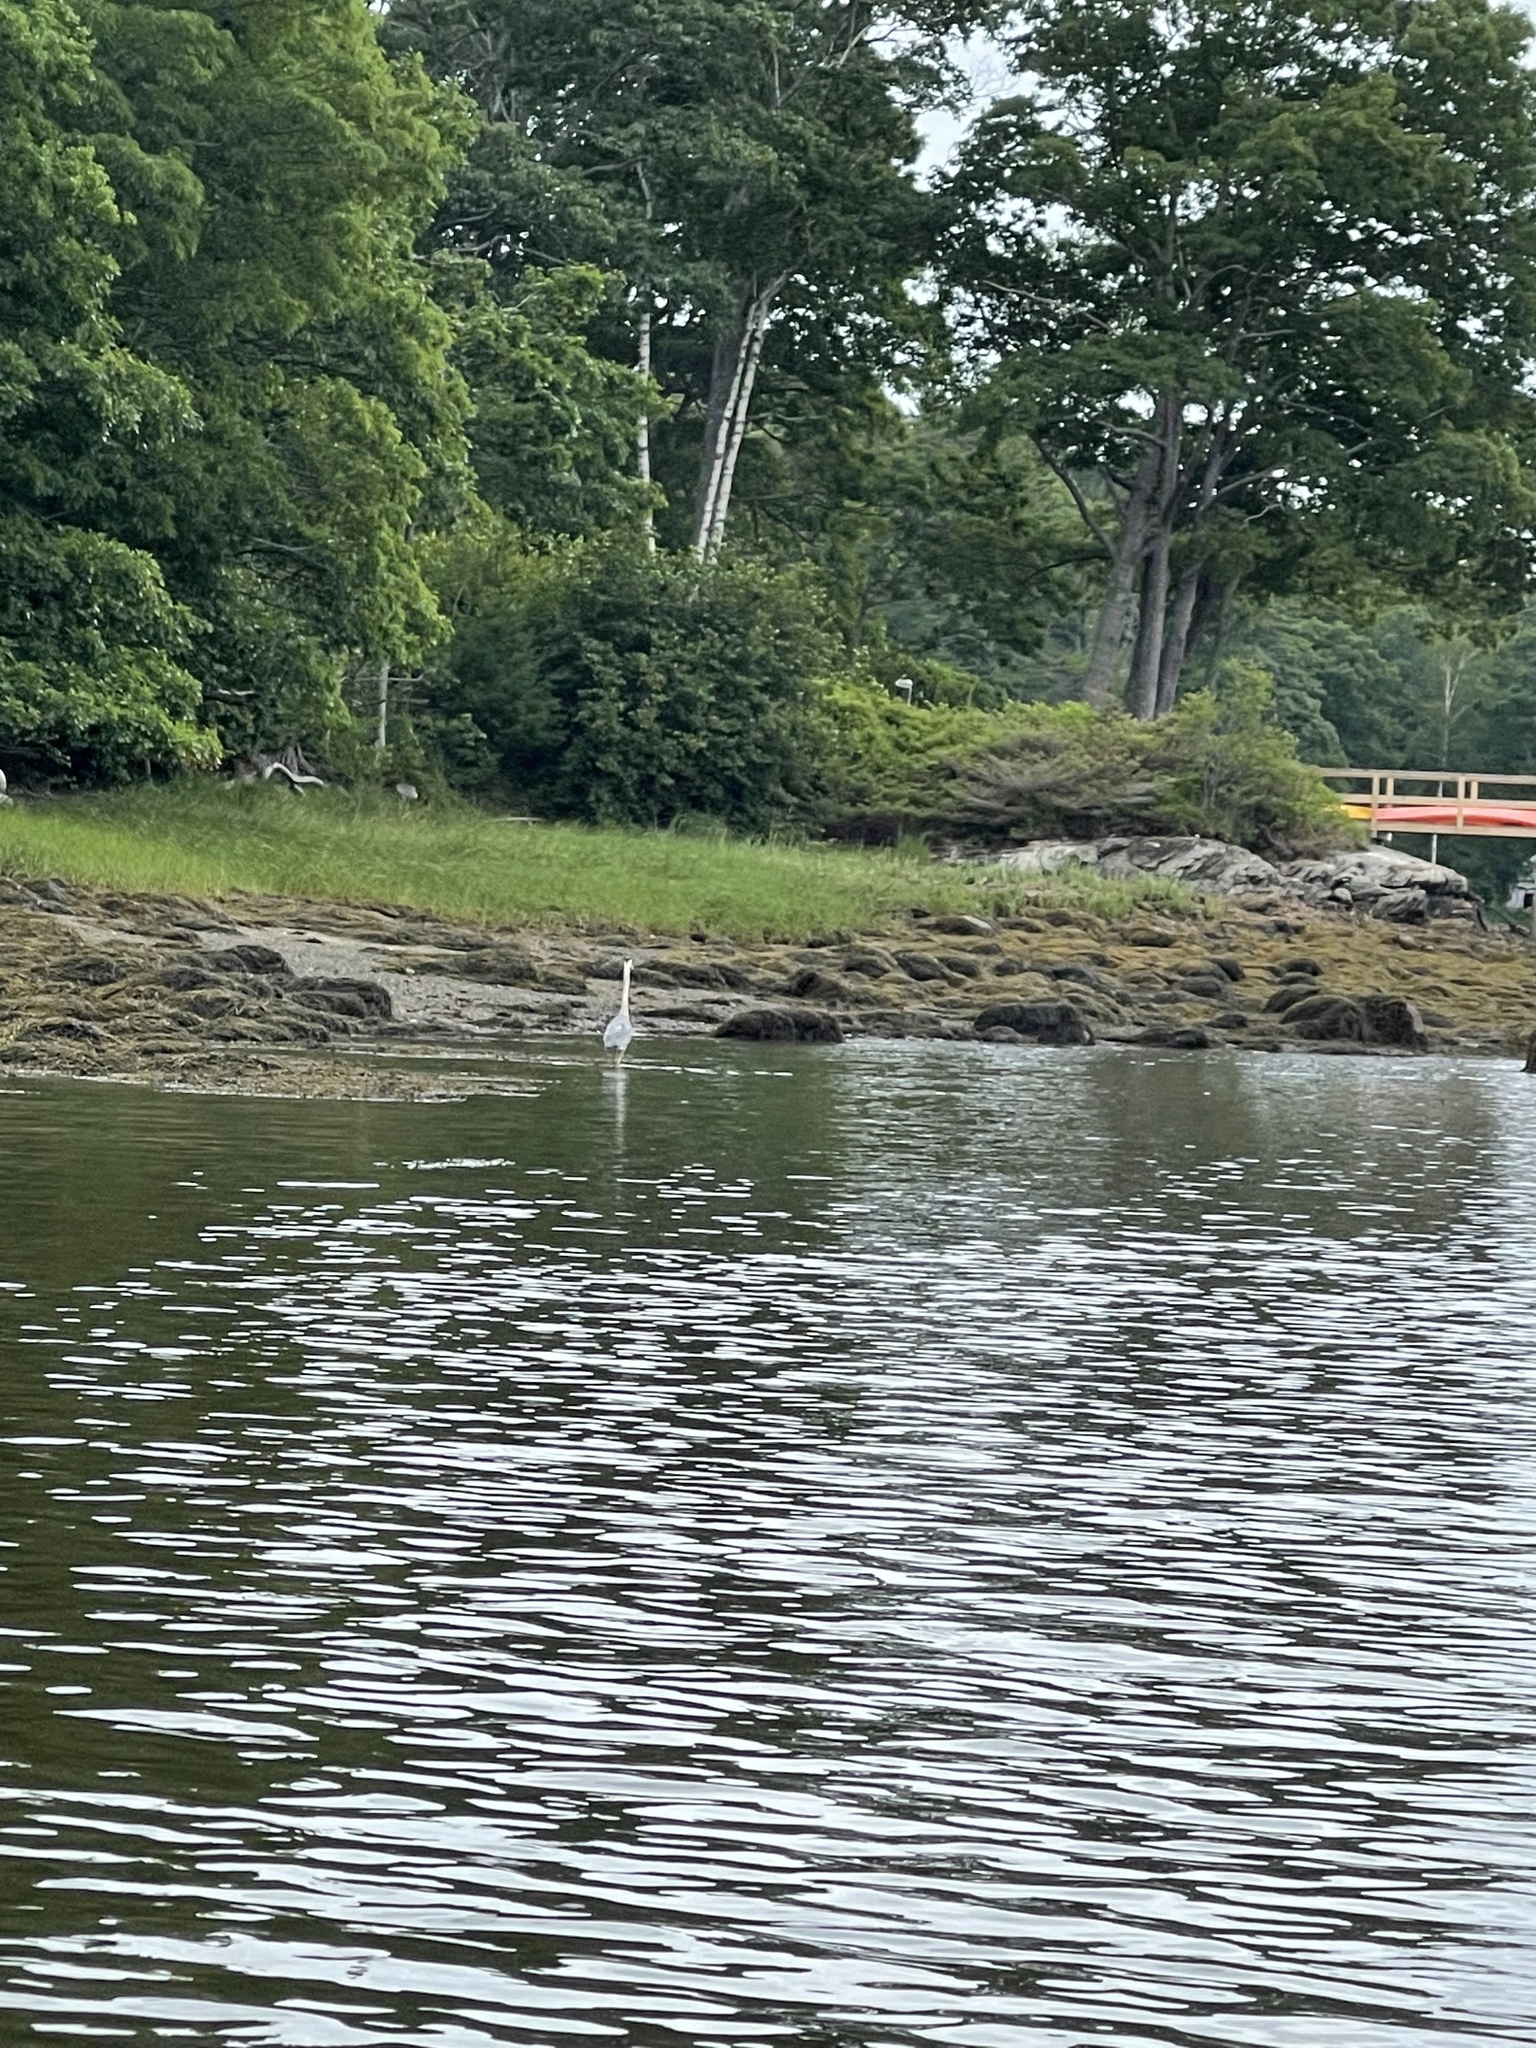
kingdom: Animalia
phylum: Chordata
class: Aves
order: Pelecaniformes
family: Ardeidae
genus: Ardea
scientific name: Ardea herodias
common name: Great blue heron
